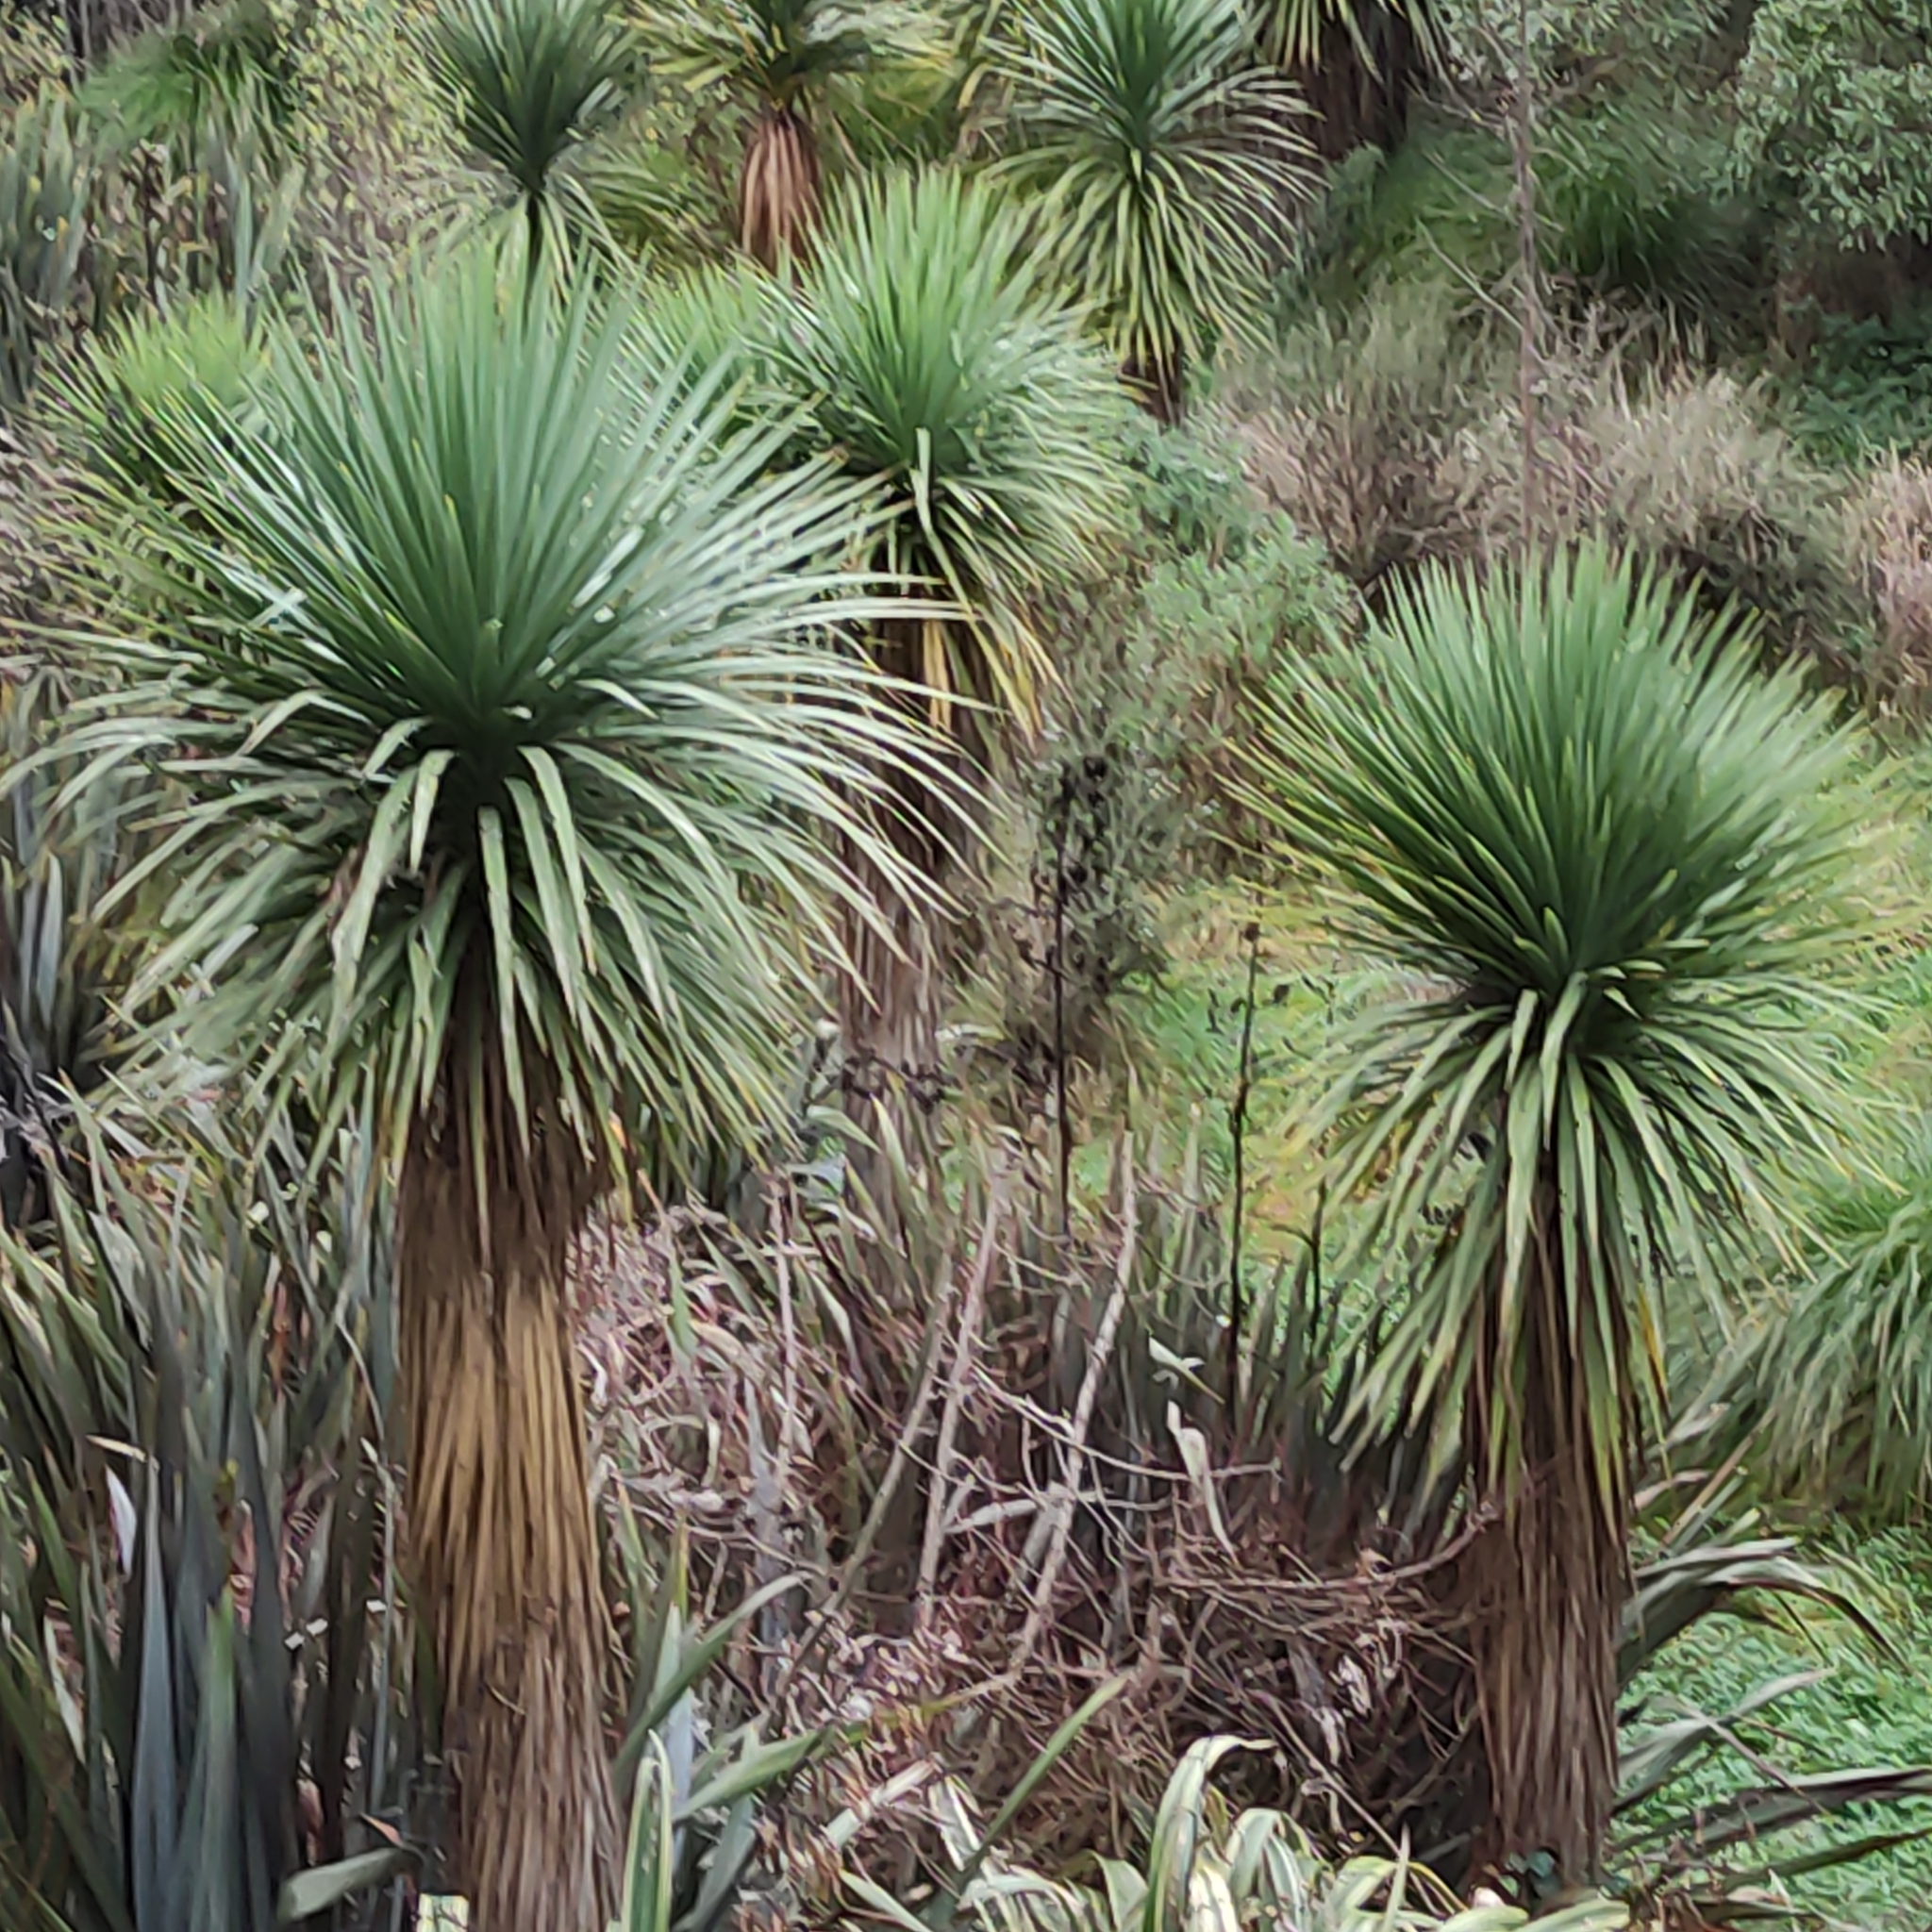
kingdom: Plantae
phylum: Tracheophyta
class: Liliopsida
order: Asparagales
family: Asparagaceae
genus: Cordyline
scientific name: Cordyline australis
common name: Cabbage-palm
